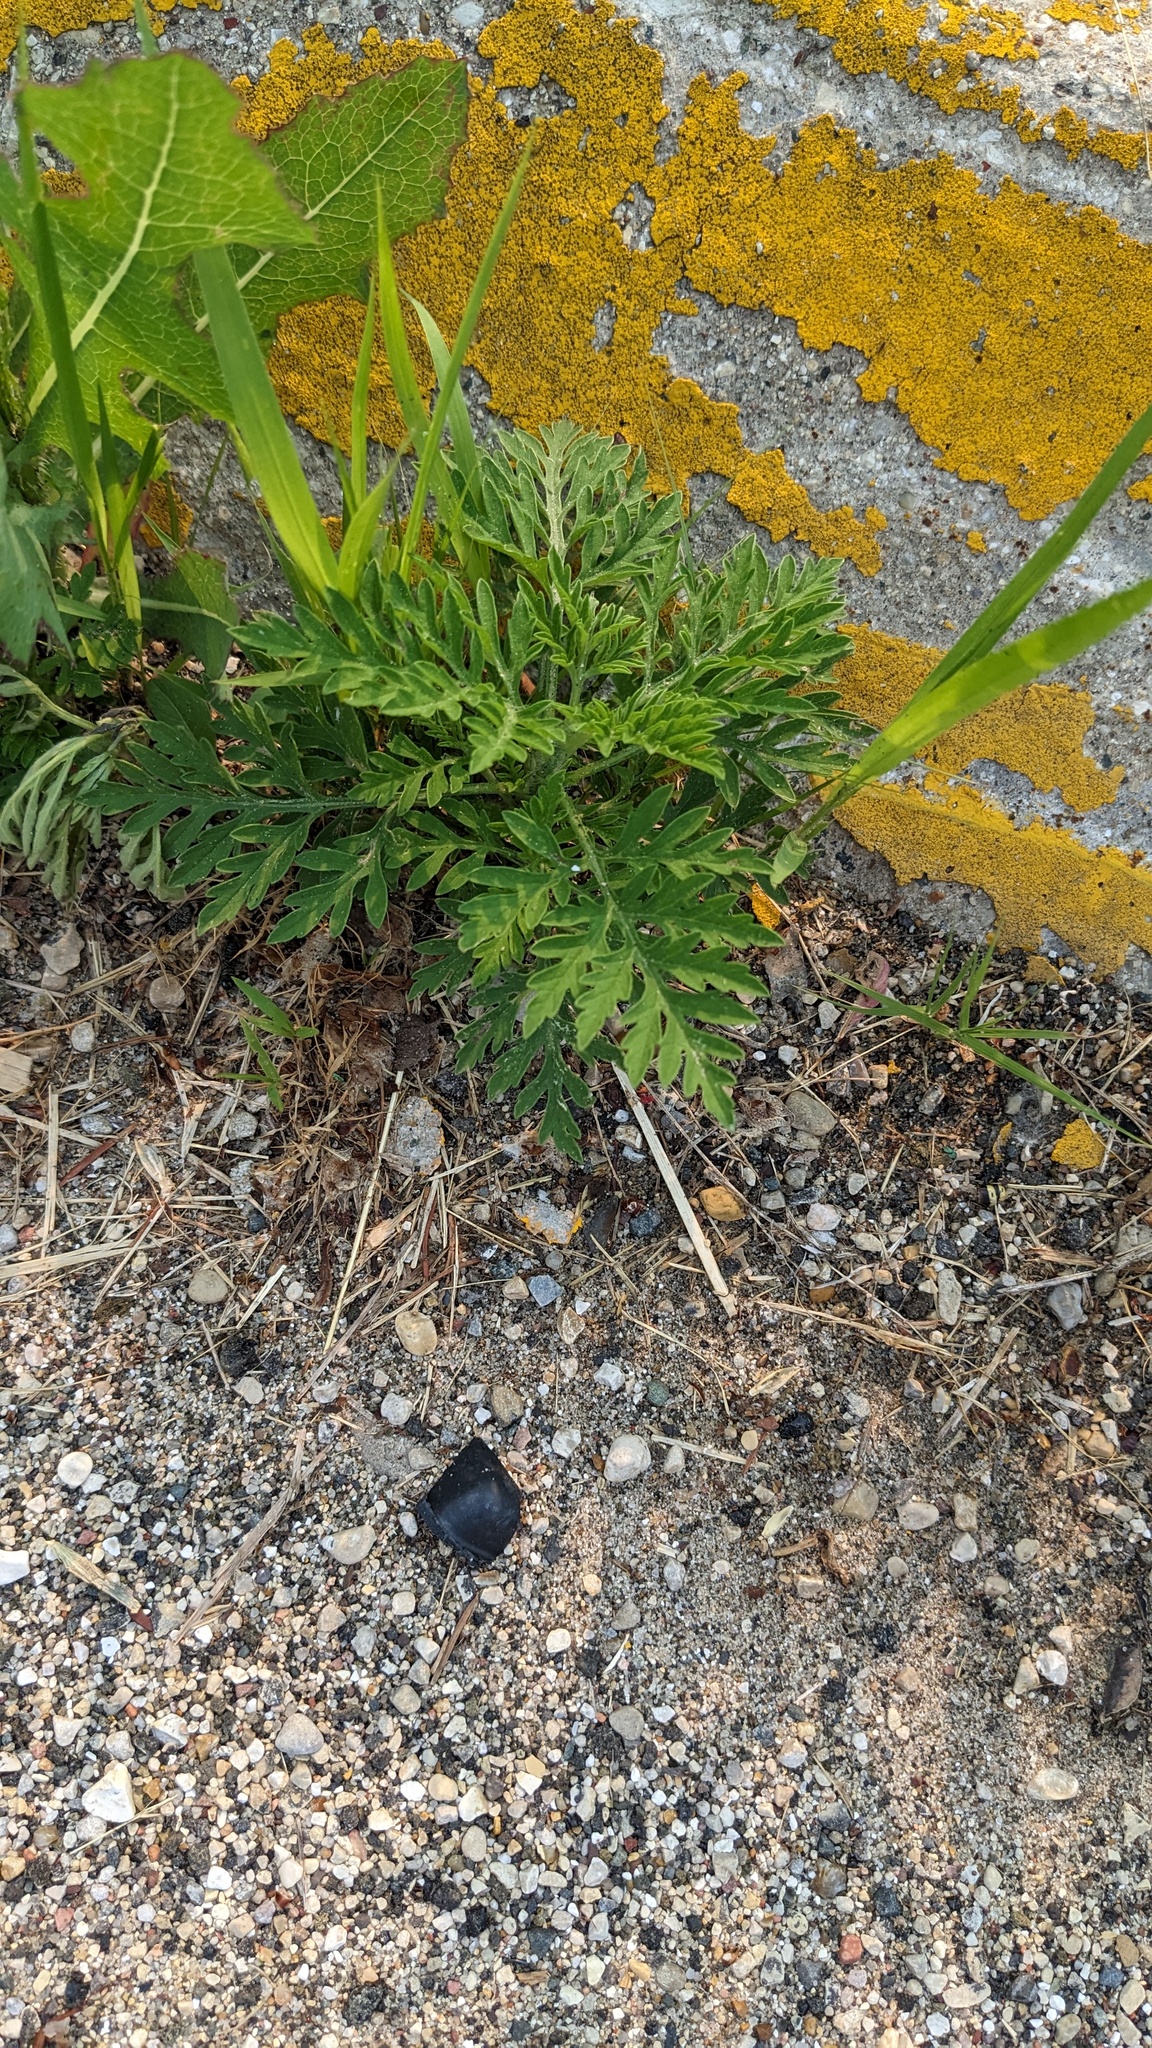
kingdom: Plantae
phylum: Tracheophyta
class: Magnoliopsida
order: Asterales
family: Asteraceae
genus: Ambrosia
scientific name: Ambrosia artemisiifolia
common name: Annual ragweed
